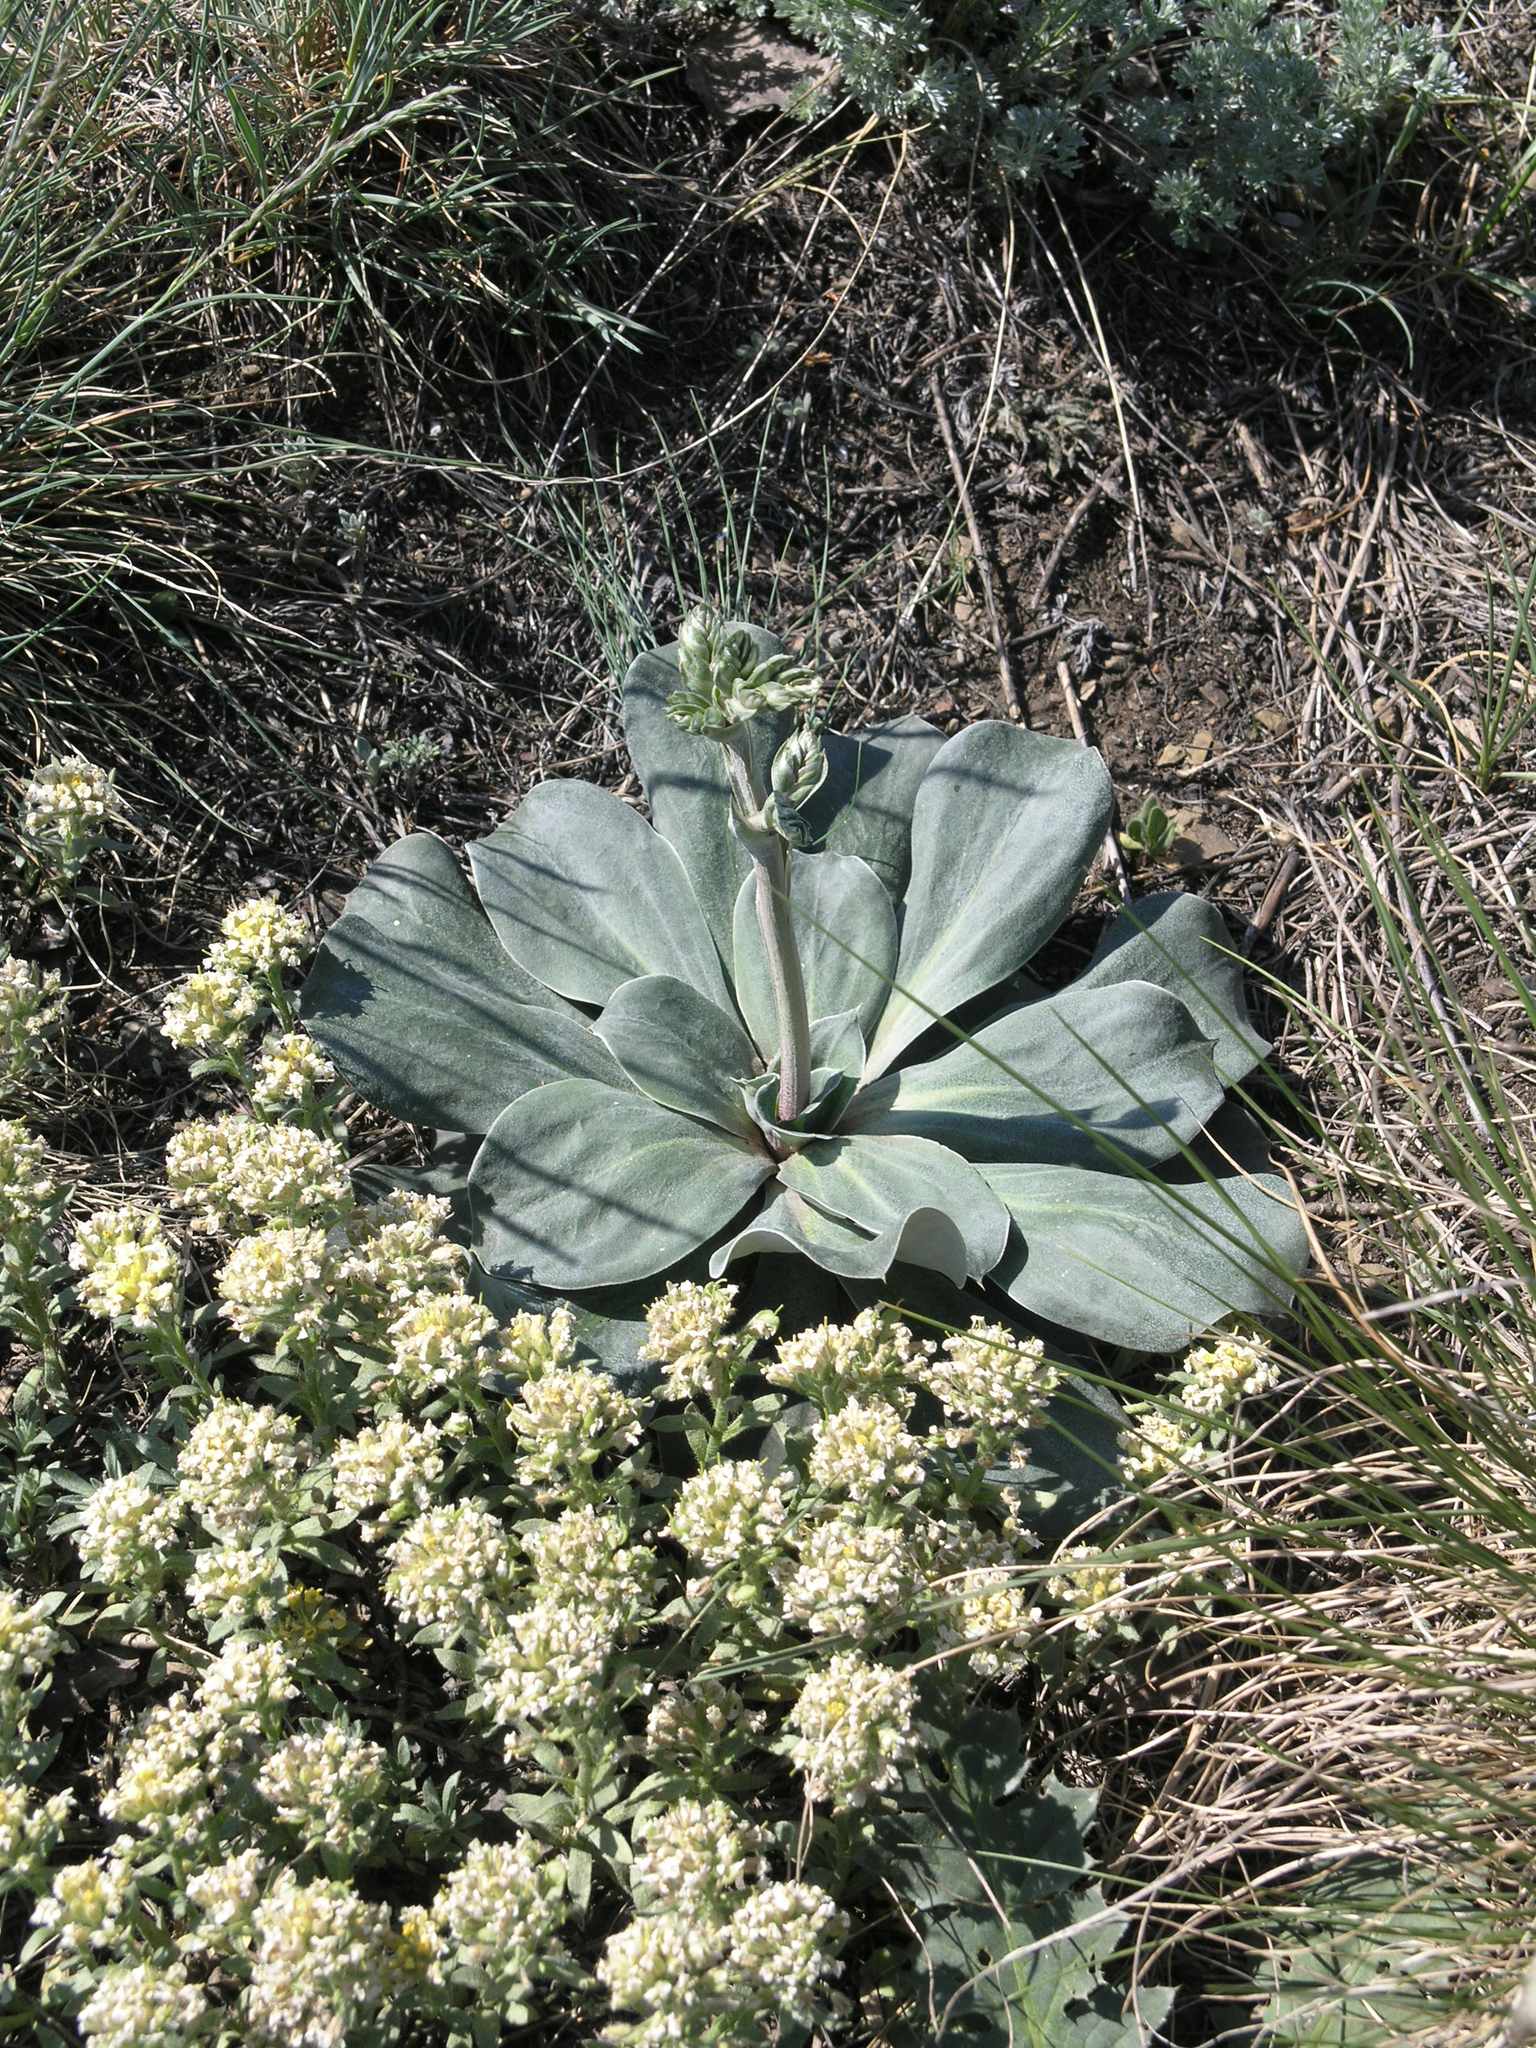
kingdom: Plantae
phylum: Tracheophyta
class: Magnoliopsida
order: Caryophyllales
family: Plumbaginaceae
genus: Goniolimon
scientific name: Goniolimon speciosum
